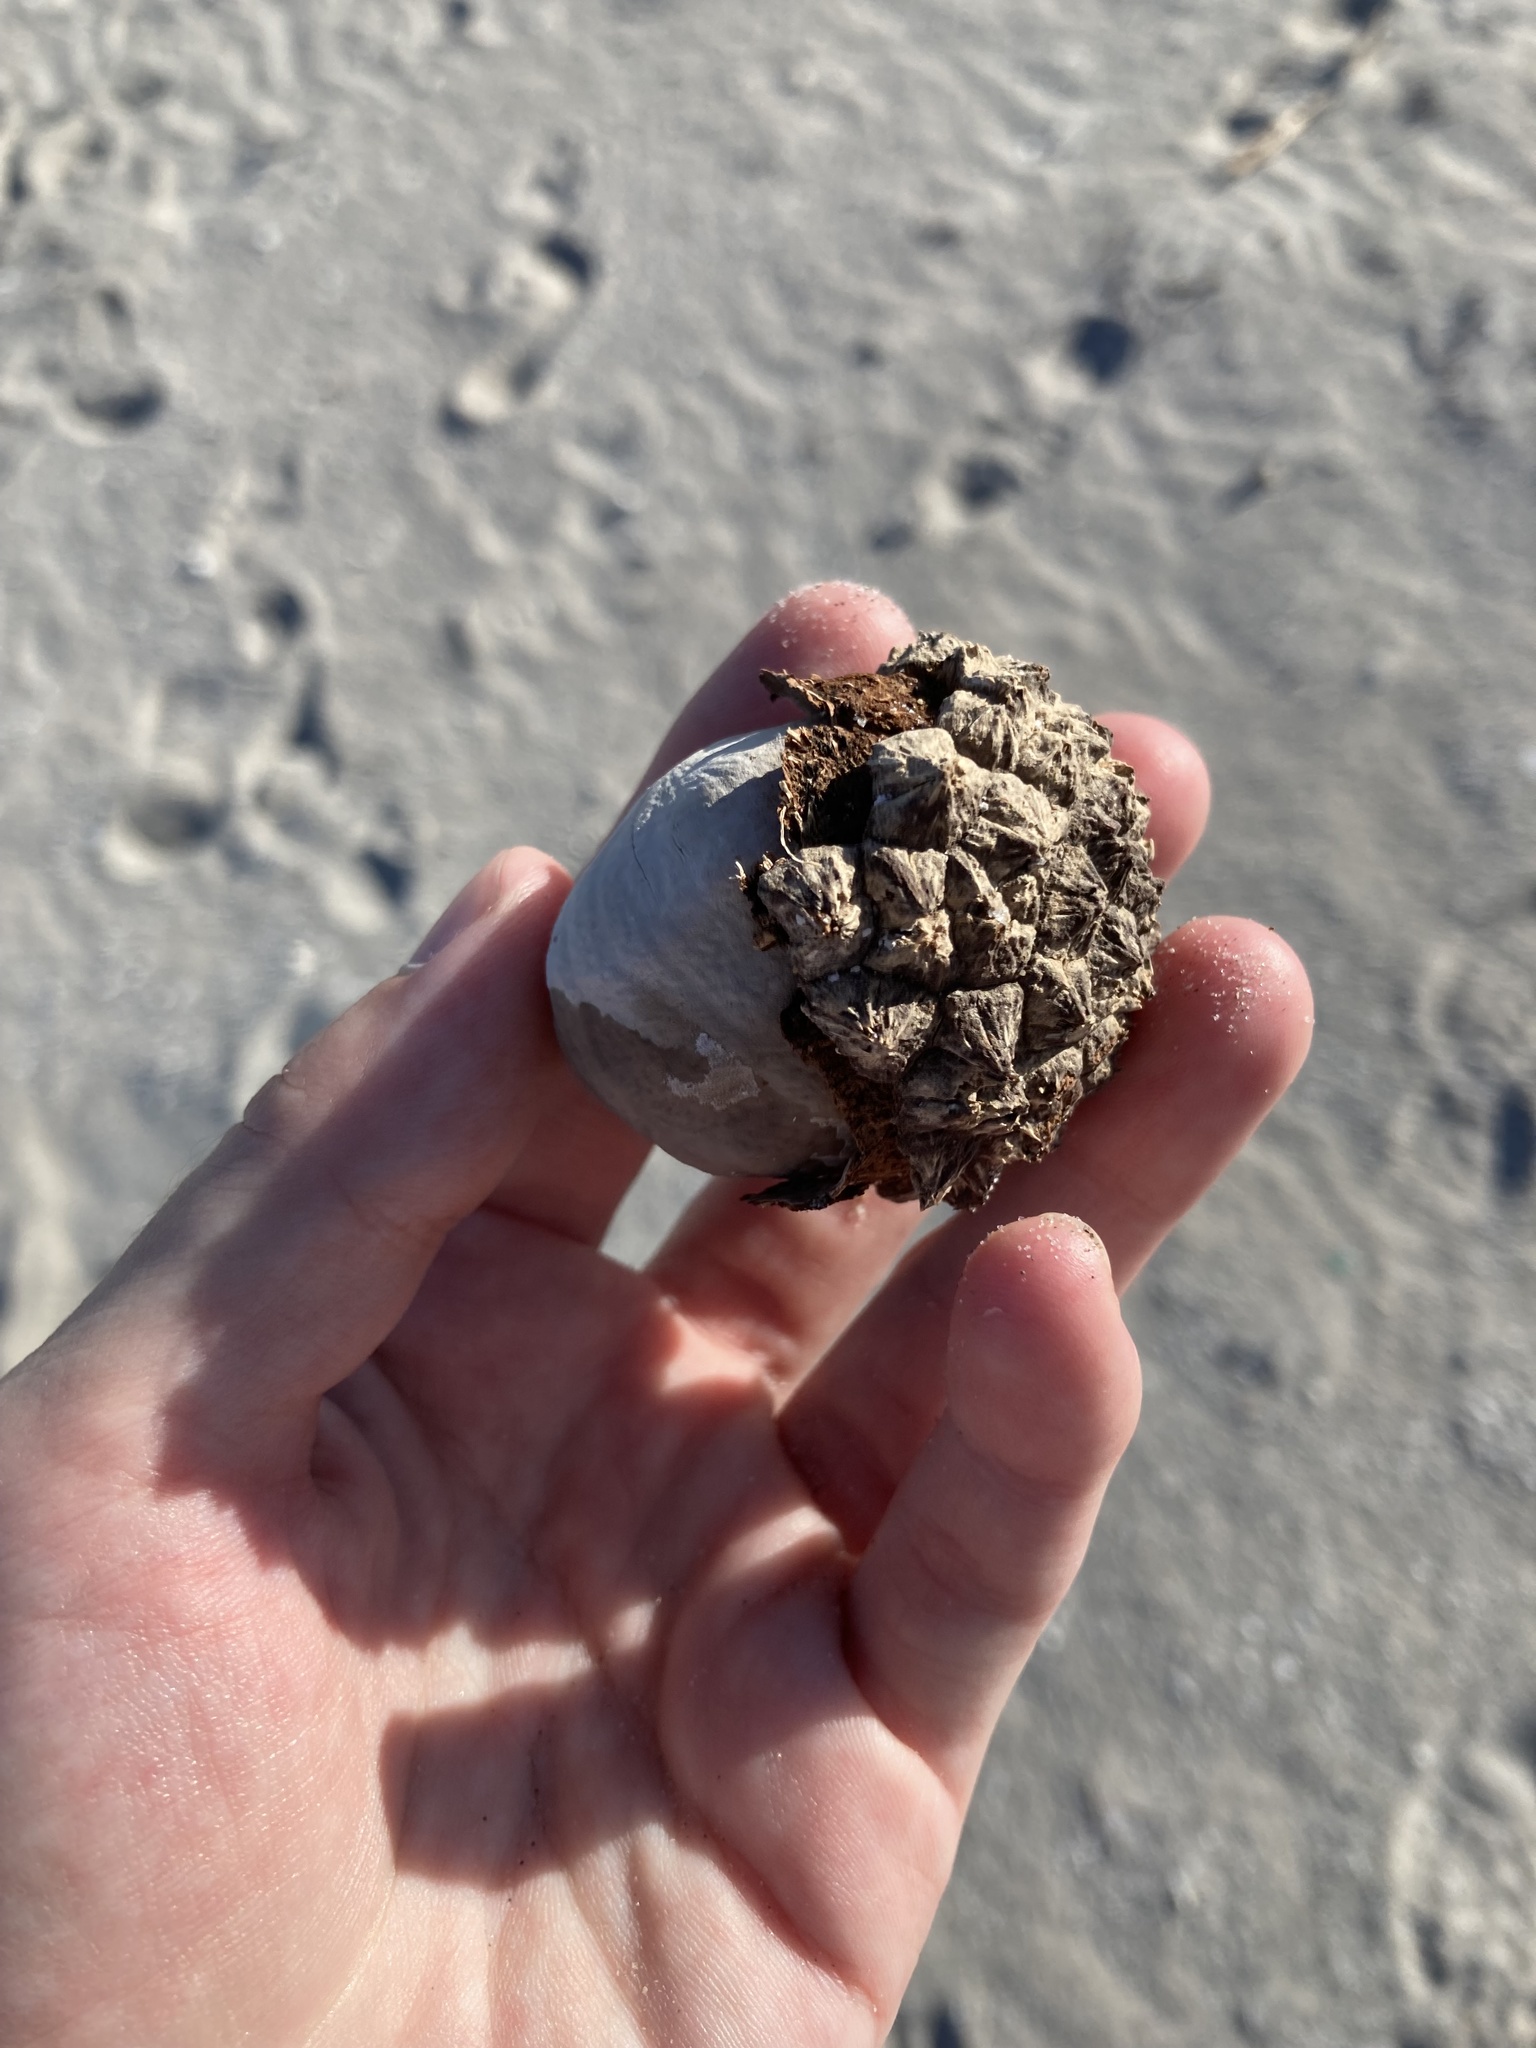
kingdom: Plantae
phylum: Tracheophyta
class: Liliopsida
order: Arecales
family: Arecaceae
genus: Manicaria
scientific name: Manicaria saccifera
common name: Sea coconut
